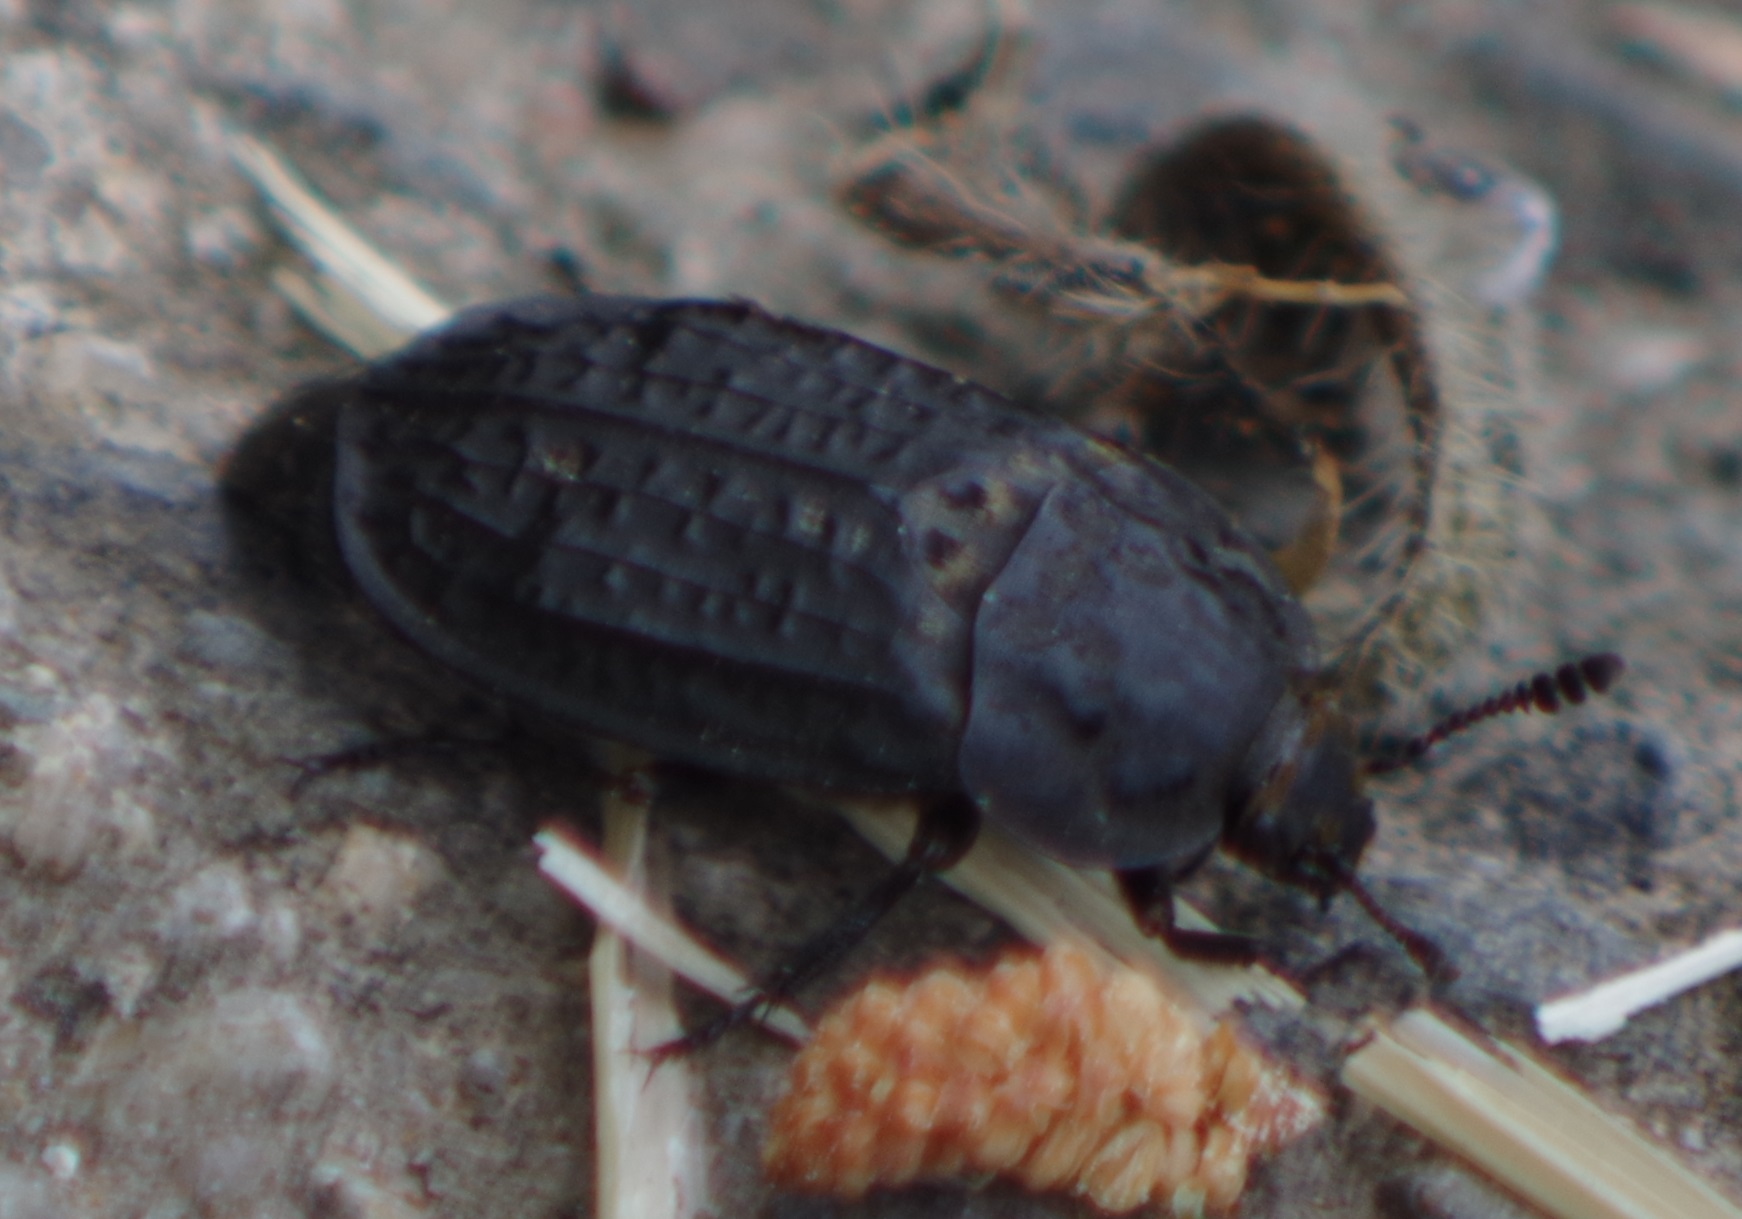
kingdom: Animalia
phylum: Arthropoda
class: Insecta
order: Coleoptera
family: Staphylinidae
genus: Thanatophilus
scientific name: Thanatophilus rugosus
